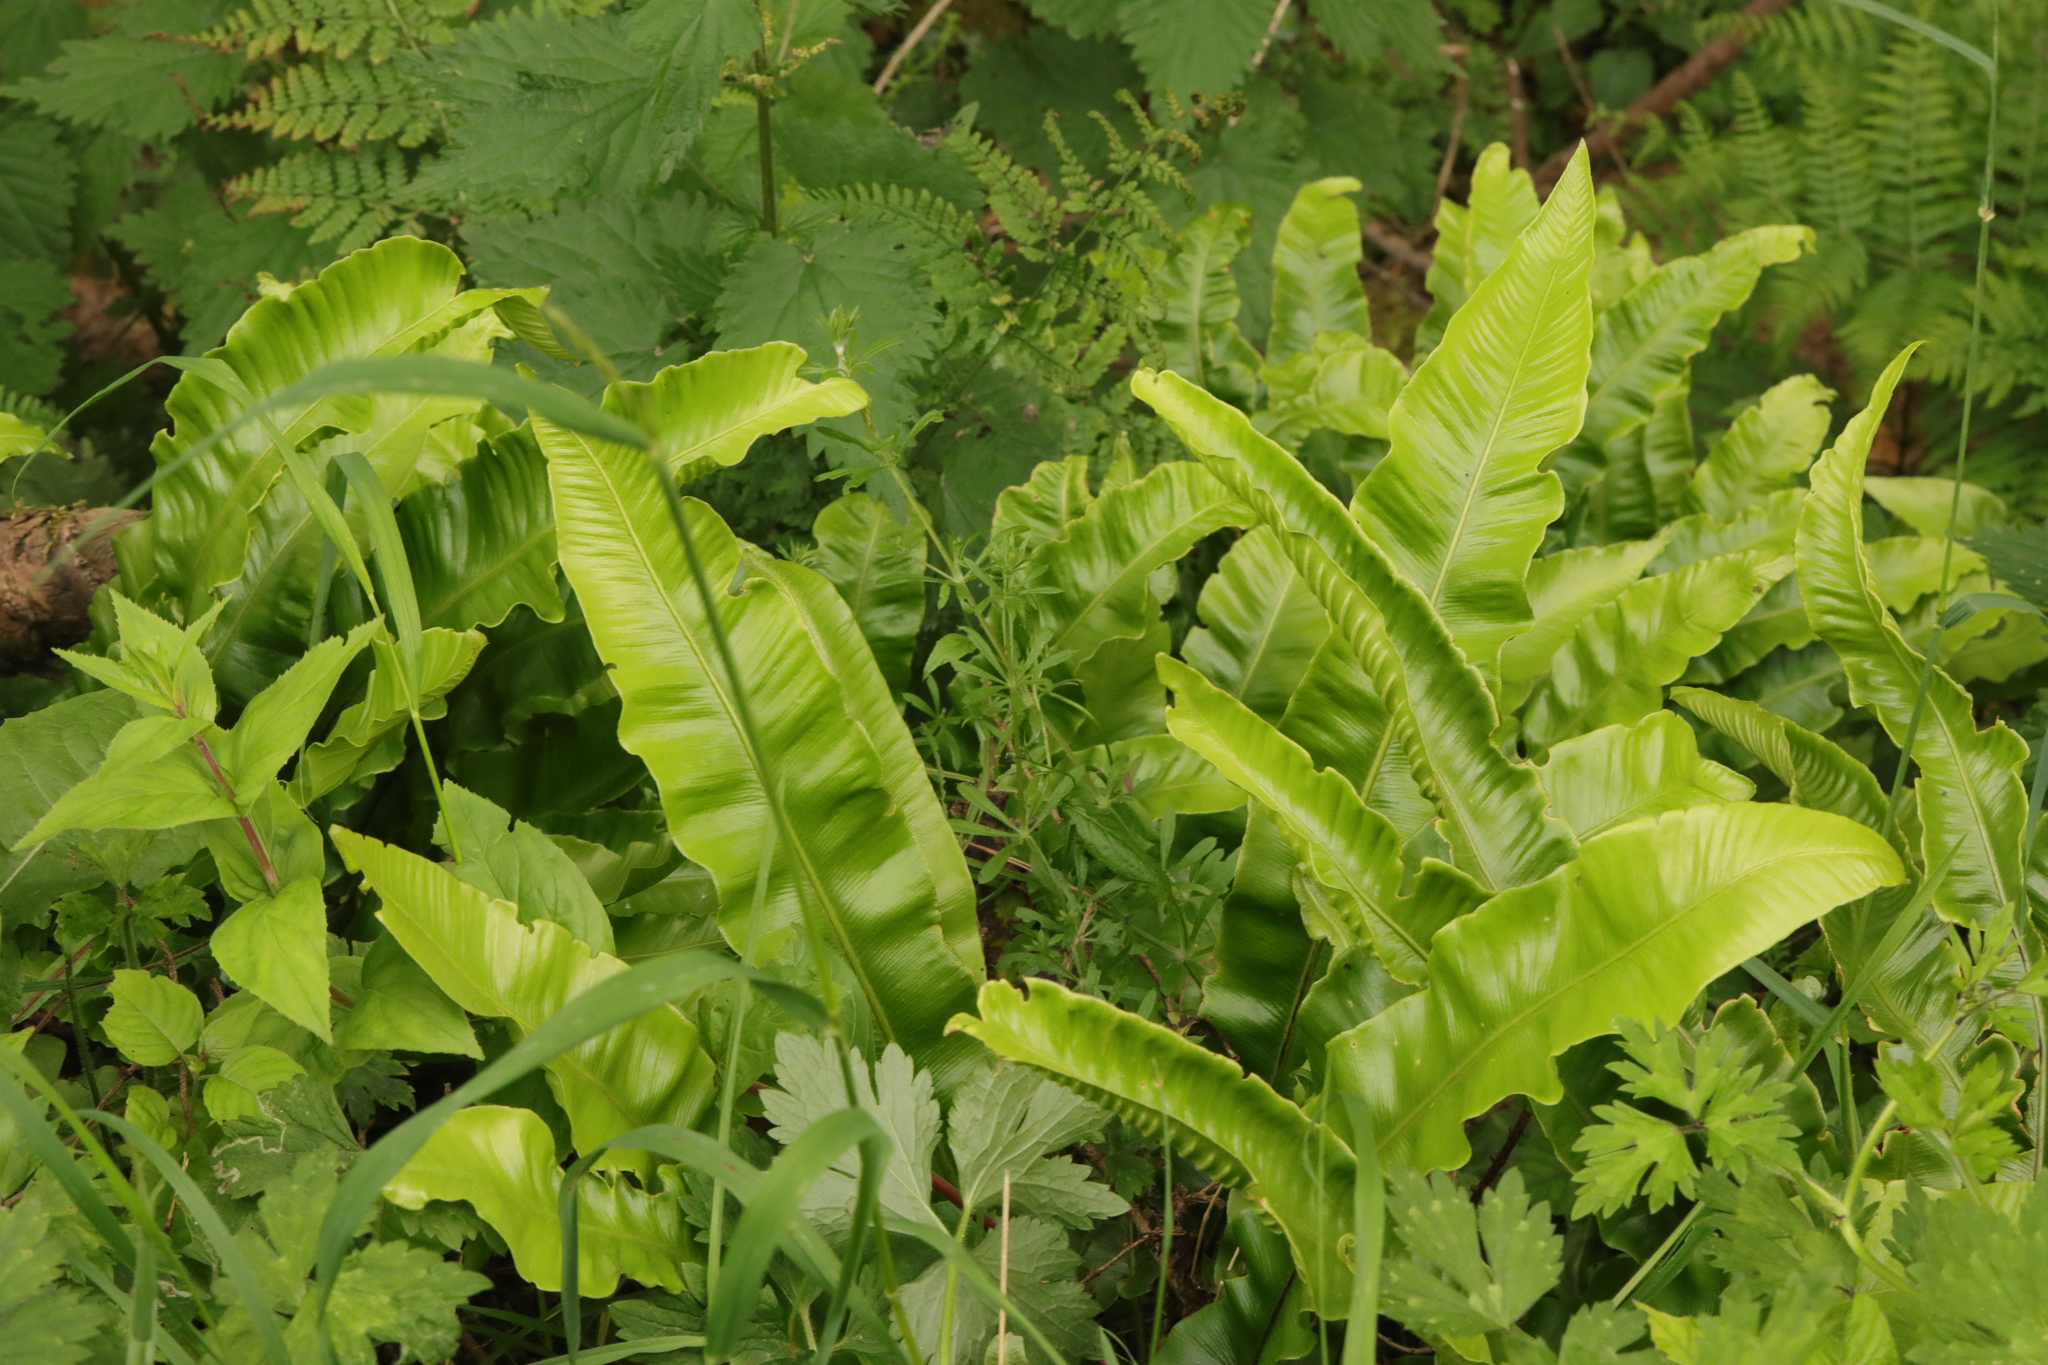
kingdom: Plantae
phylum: Tracheophyta
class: Polypodiopsida
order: Polypodiales
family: Aspleniaceae
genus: Asplenium
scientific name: Asplenium scolopendrium
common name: Hart's-tongue fern
